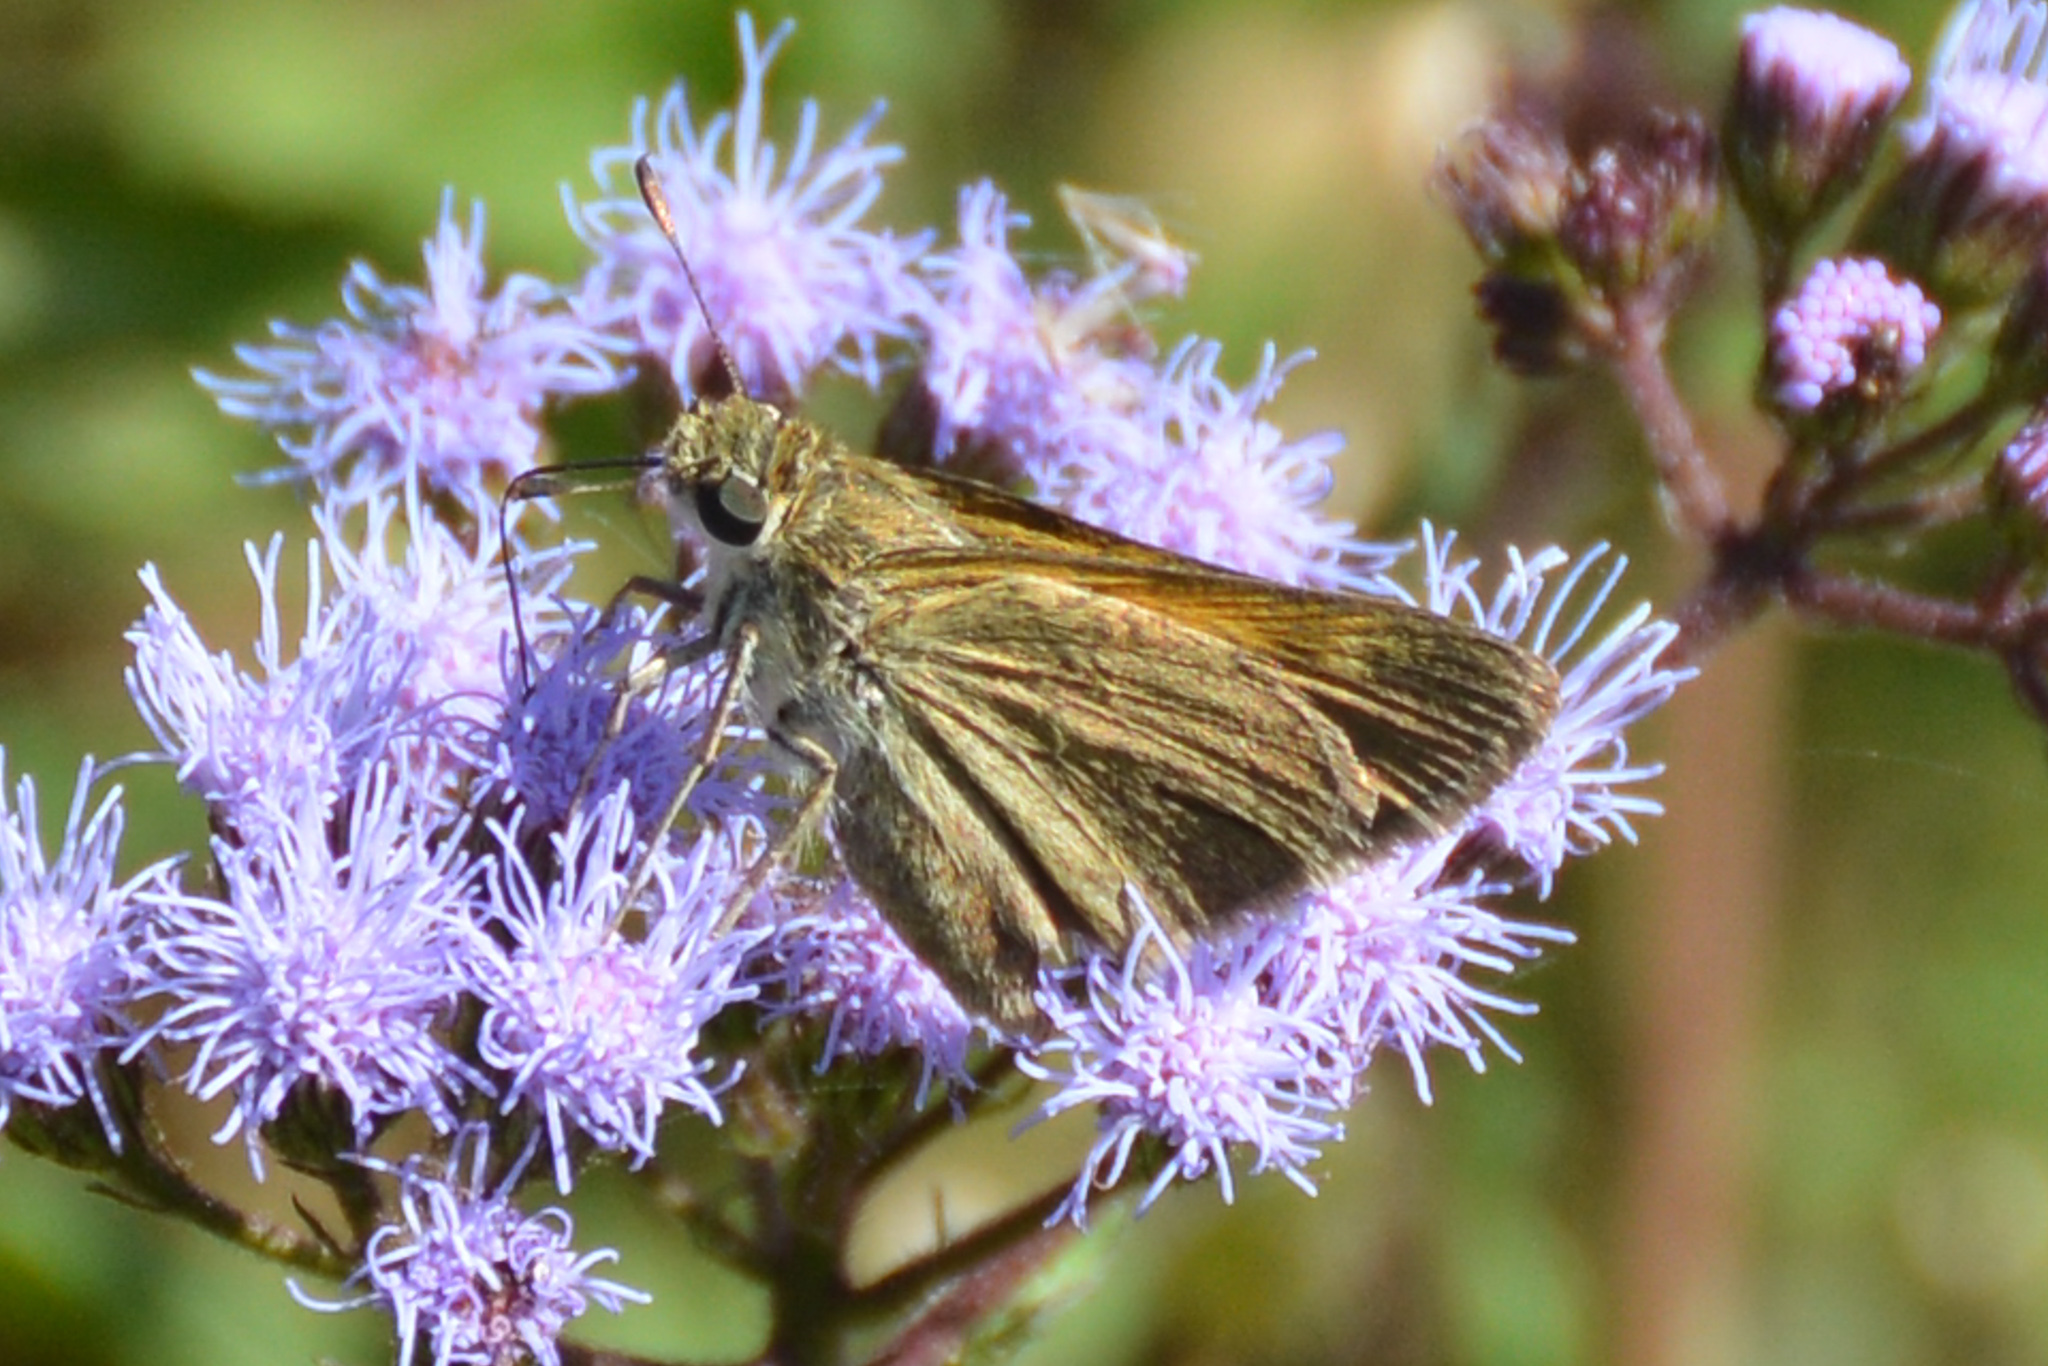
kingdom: Animalia
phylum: Arthropoda
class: Insecta
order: Lepidoptera
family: Hesperiidae
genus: Polites
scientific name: Polites themistocles
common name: Tawny-edged skipper
